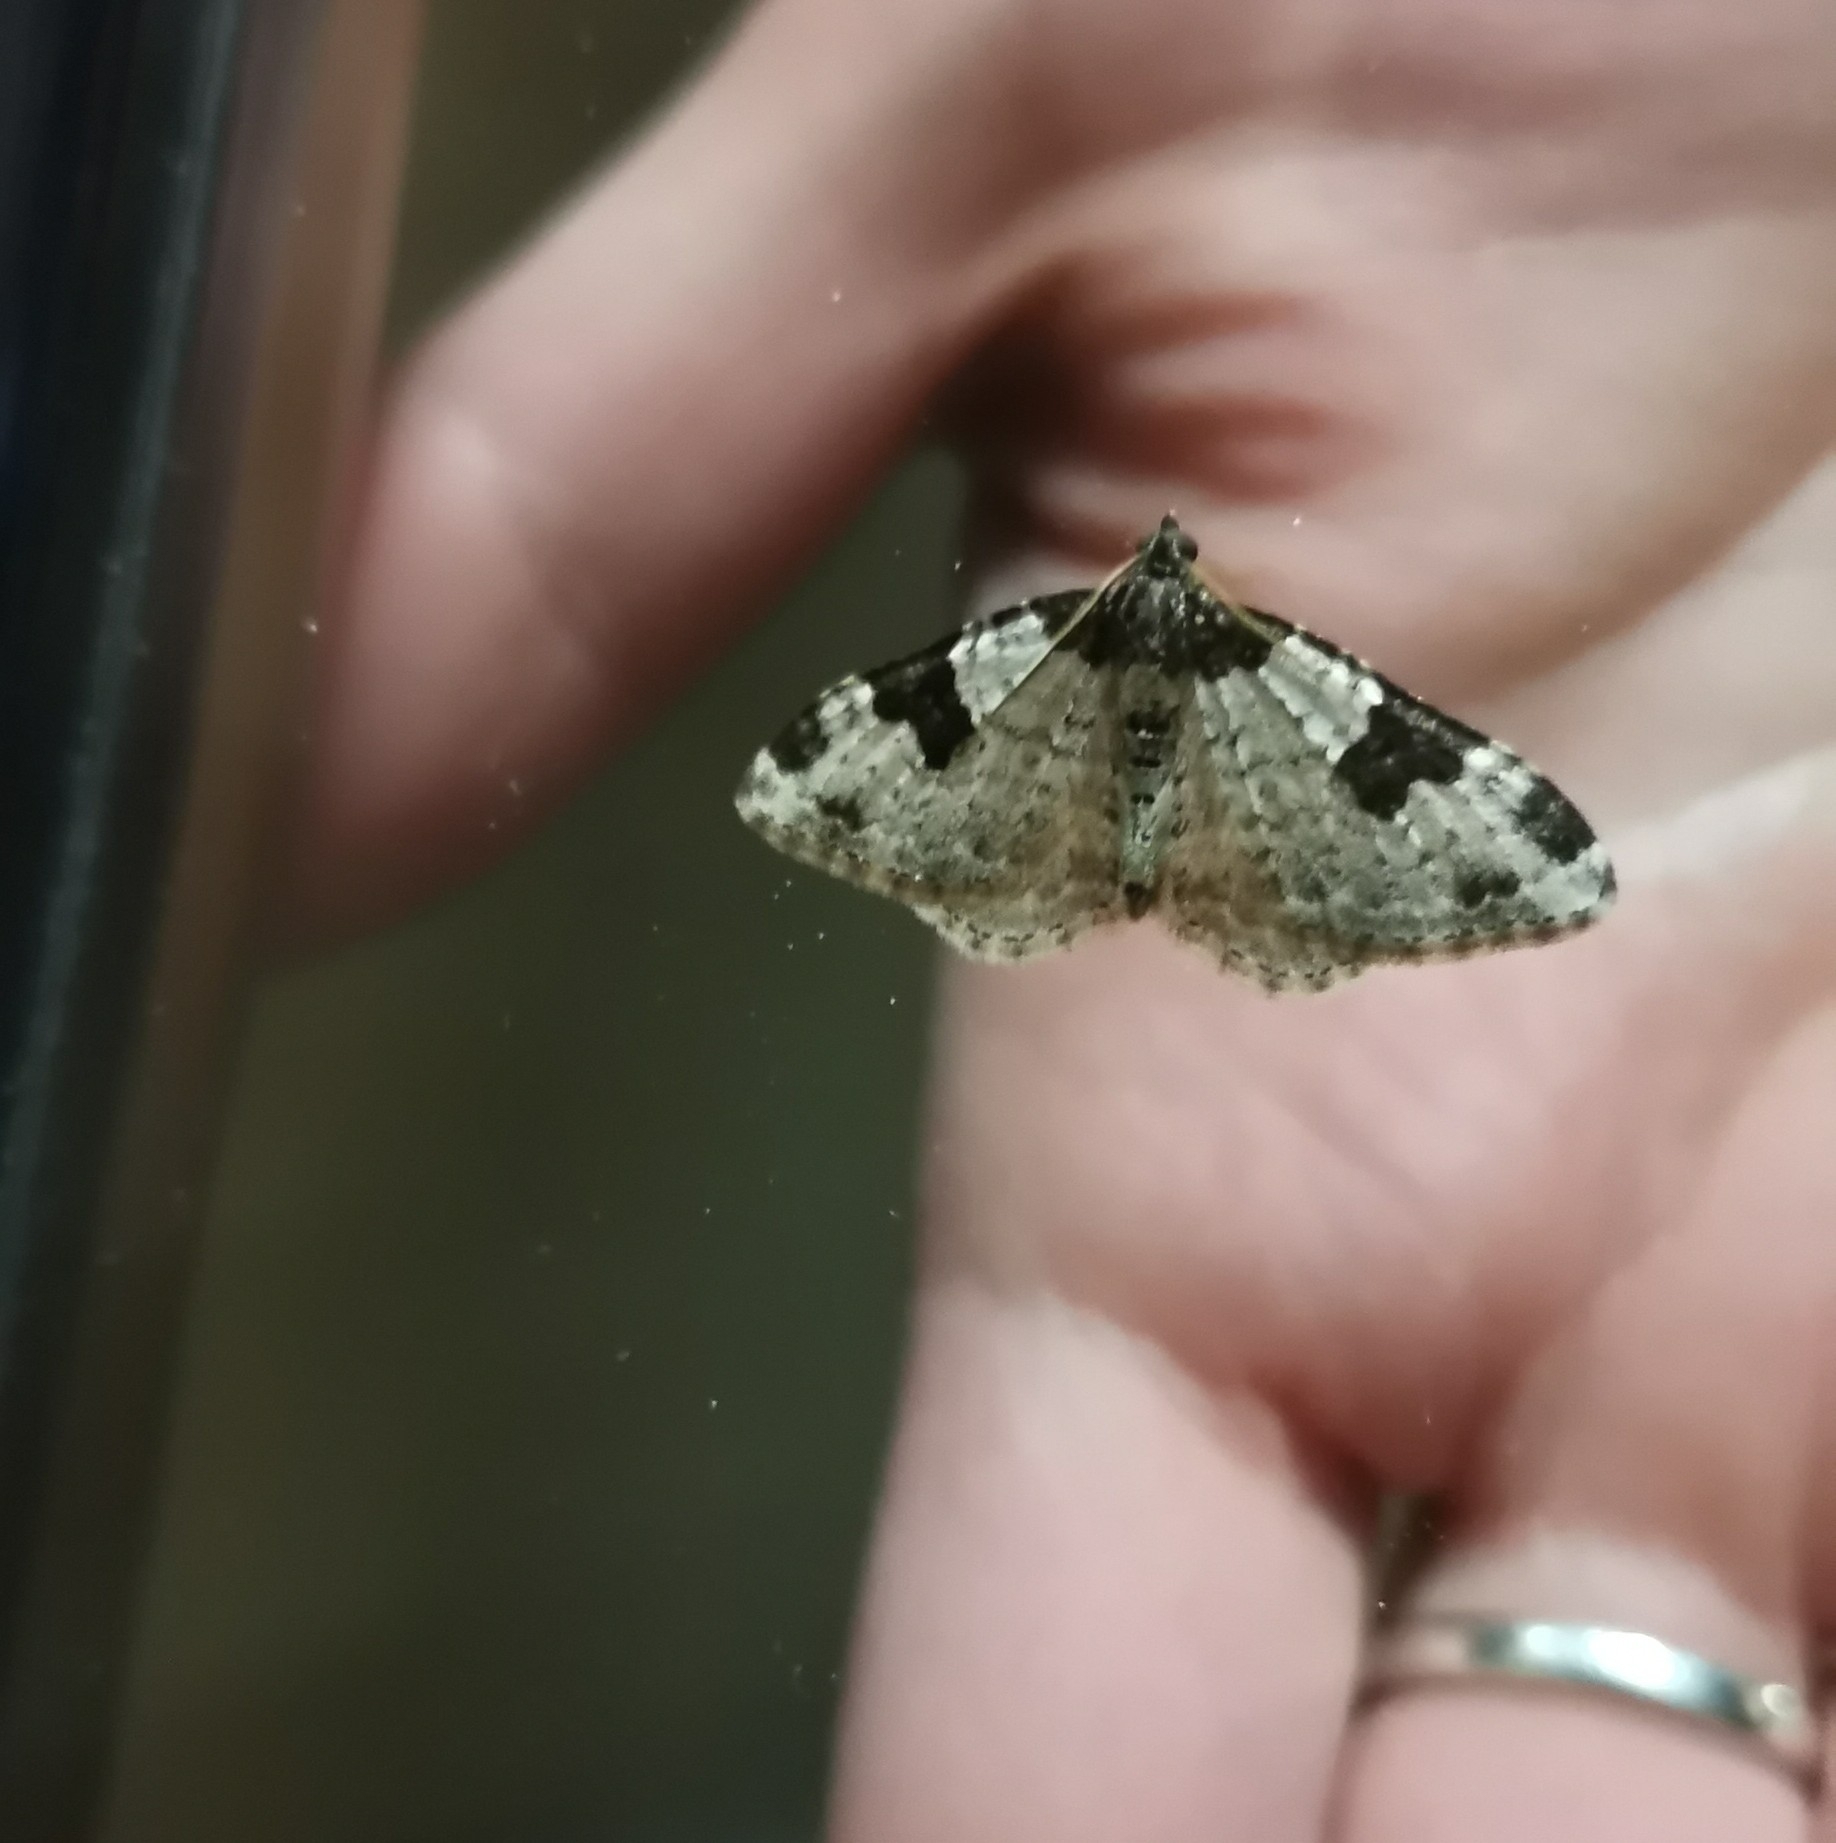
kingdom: Animalia
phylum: Arthropoda
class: Insecta
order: Lepidoptera
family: Geometridae
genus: Xanthorhoe
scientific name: Xanthorhoe fluctuata
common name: Garden carpet
